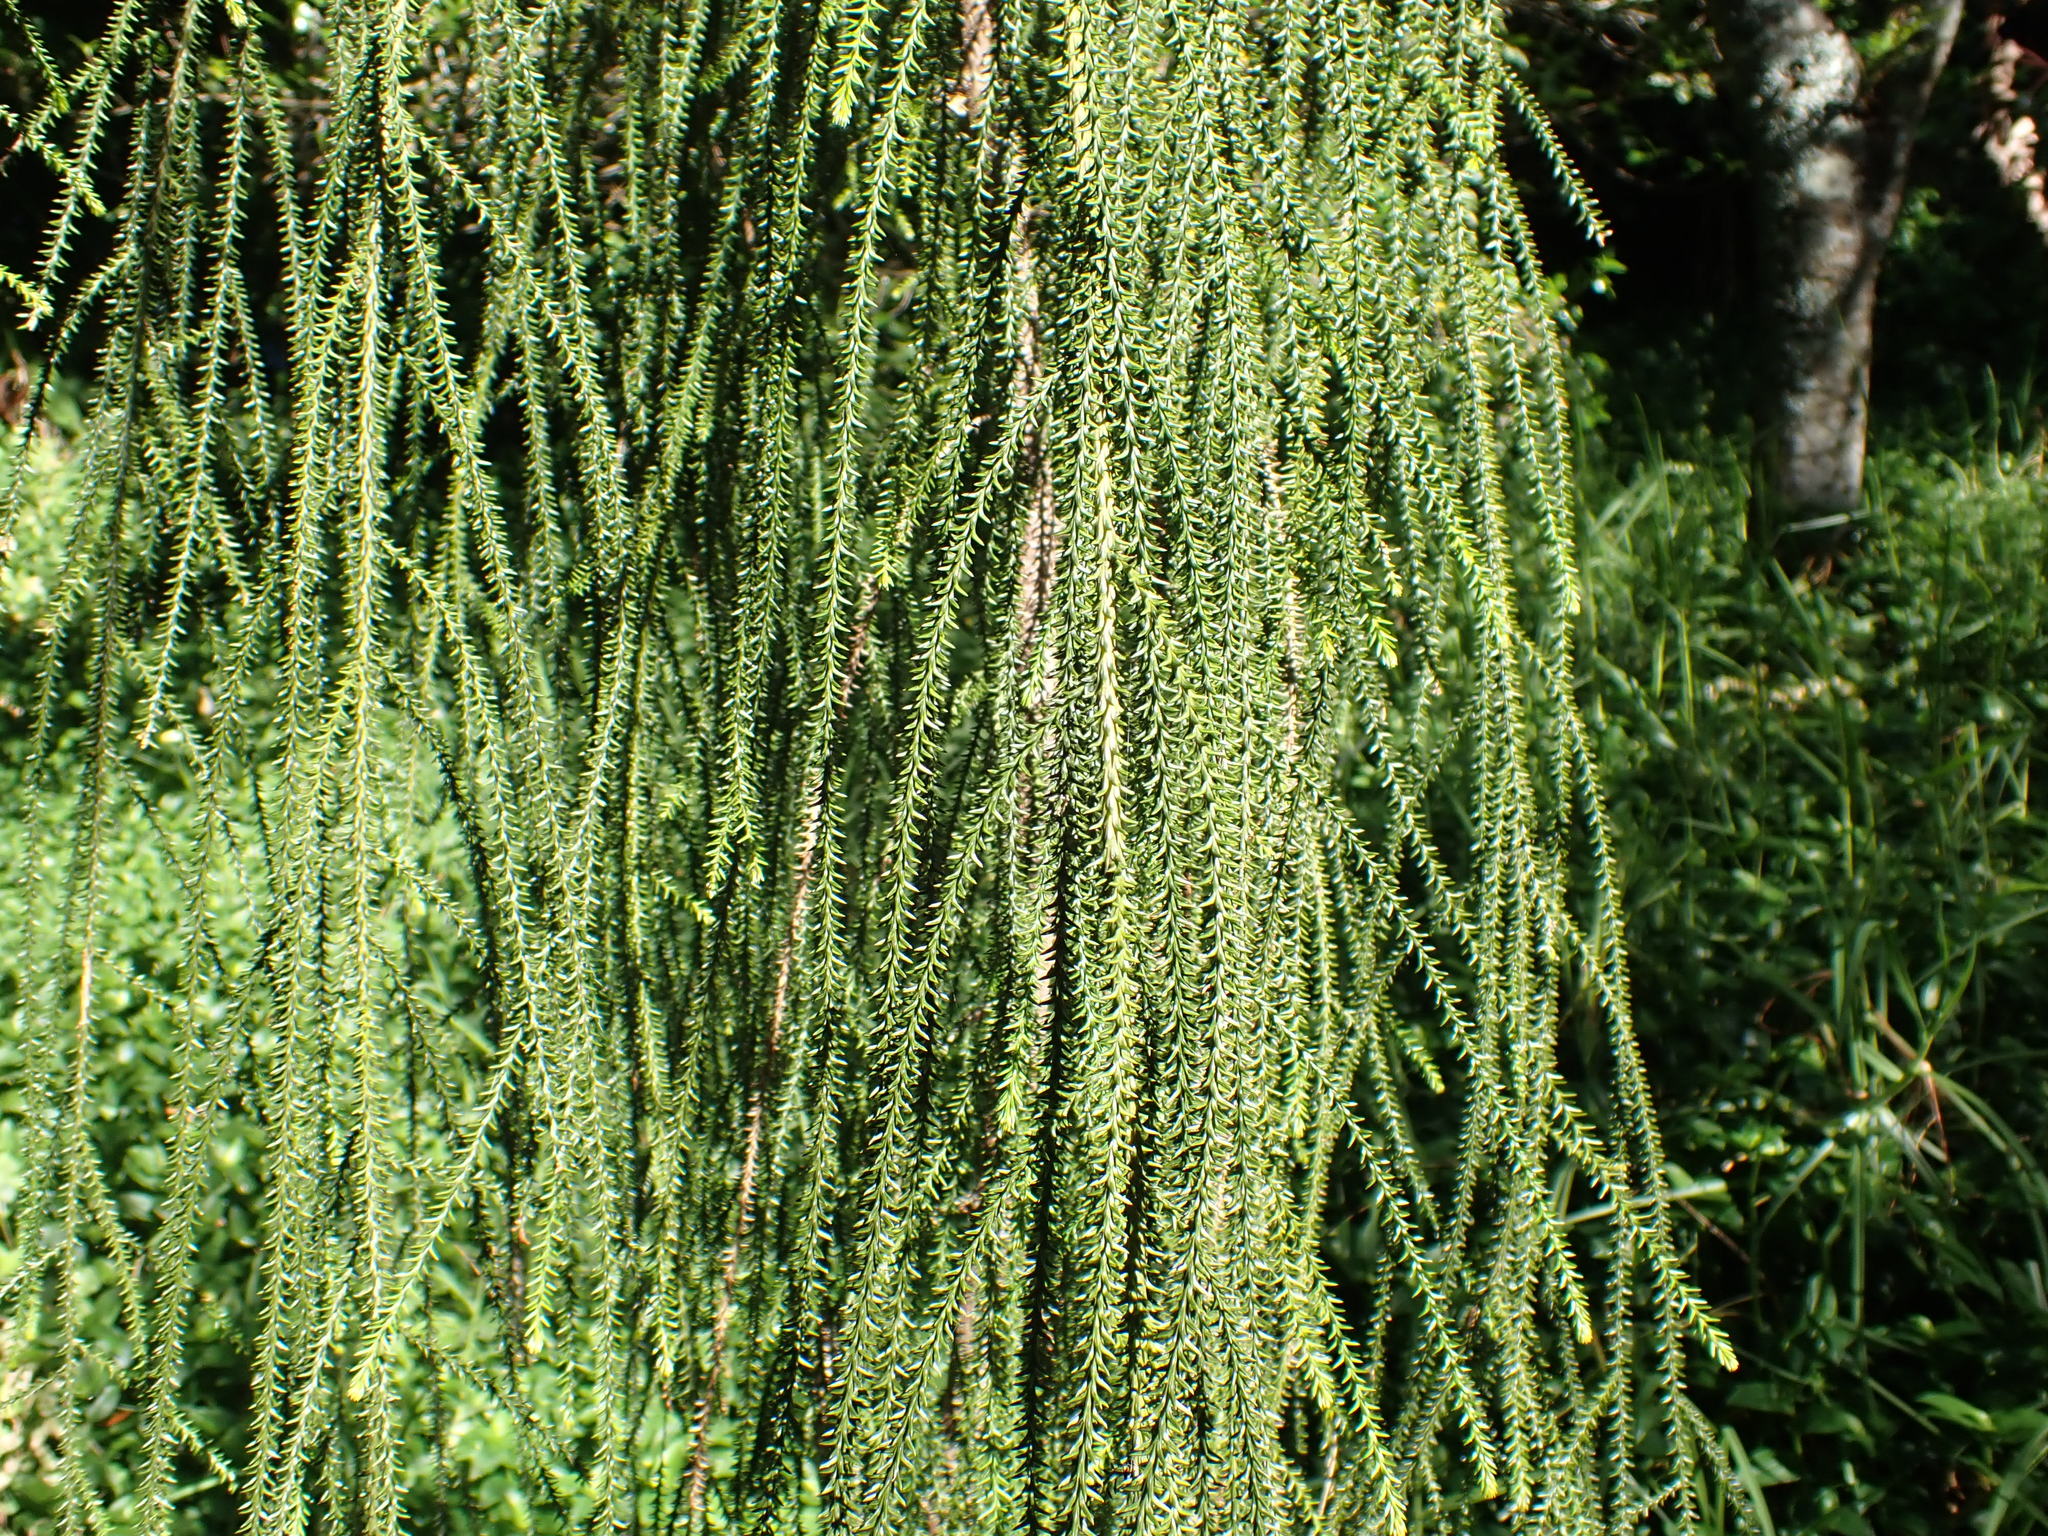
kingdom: Plantae
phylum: Tracheophyta
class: Pinopsida
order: Pinales
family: Podocarpaceae
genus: Dacrydium
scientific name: Dacrydium cupressinum
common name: Red pine
